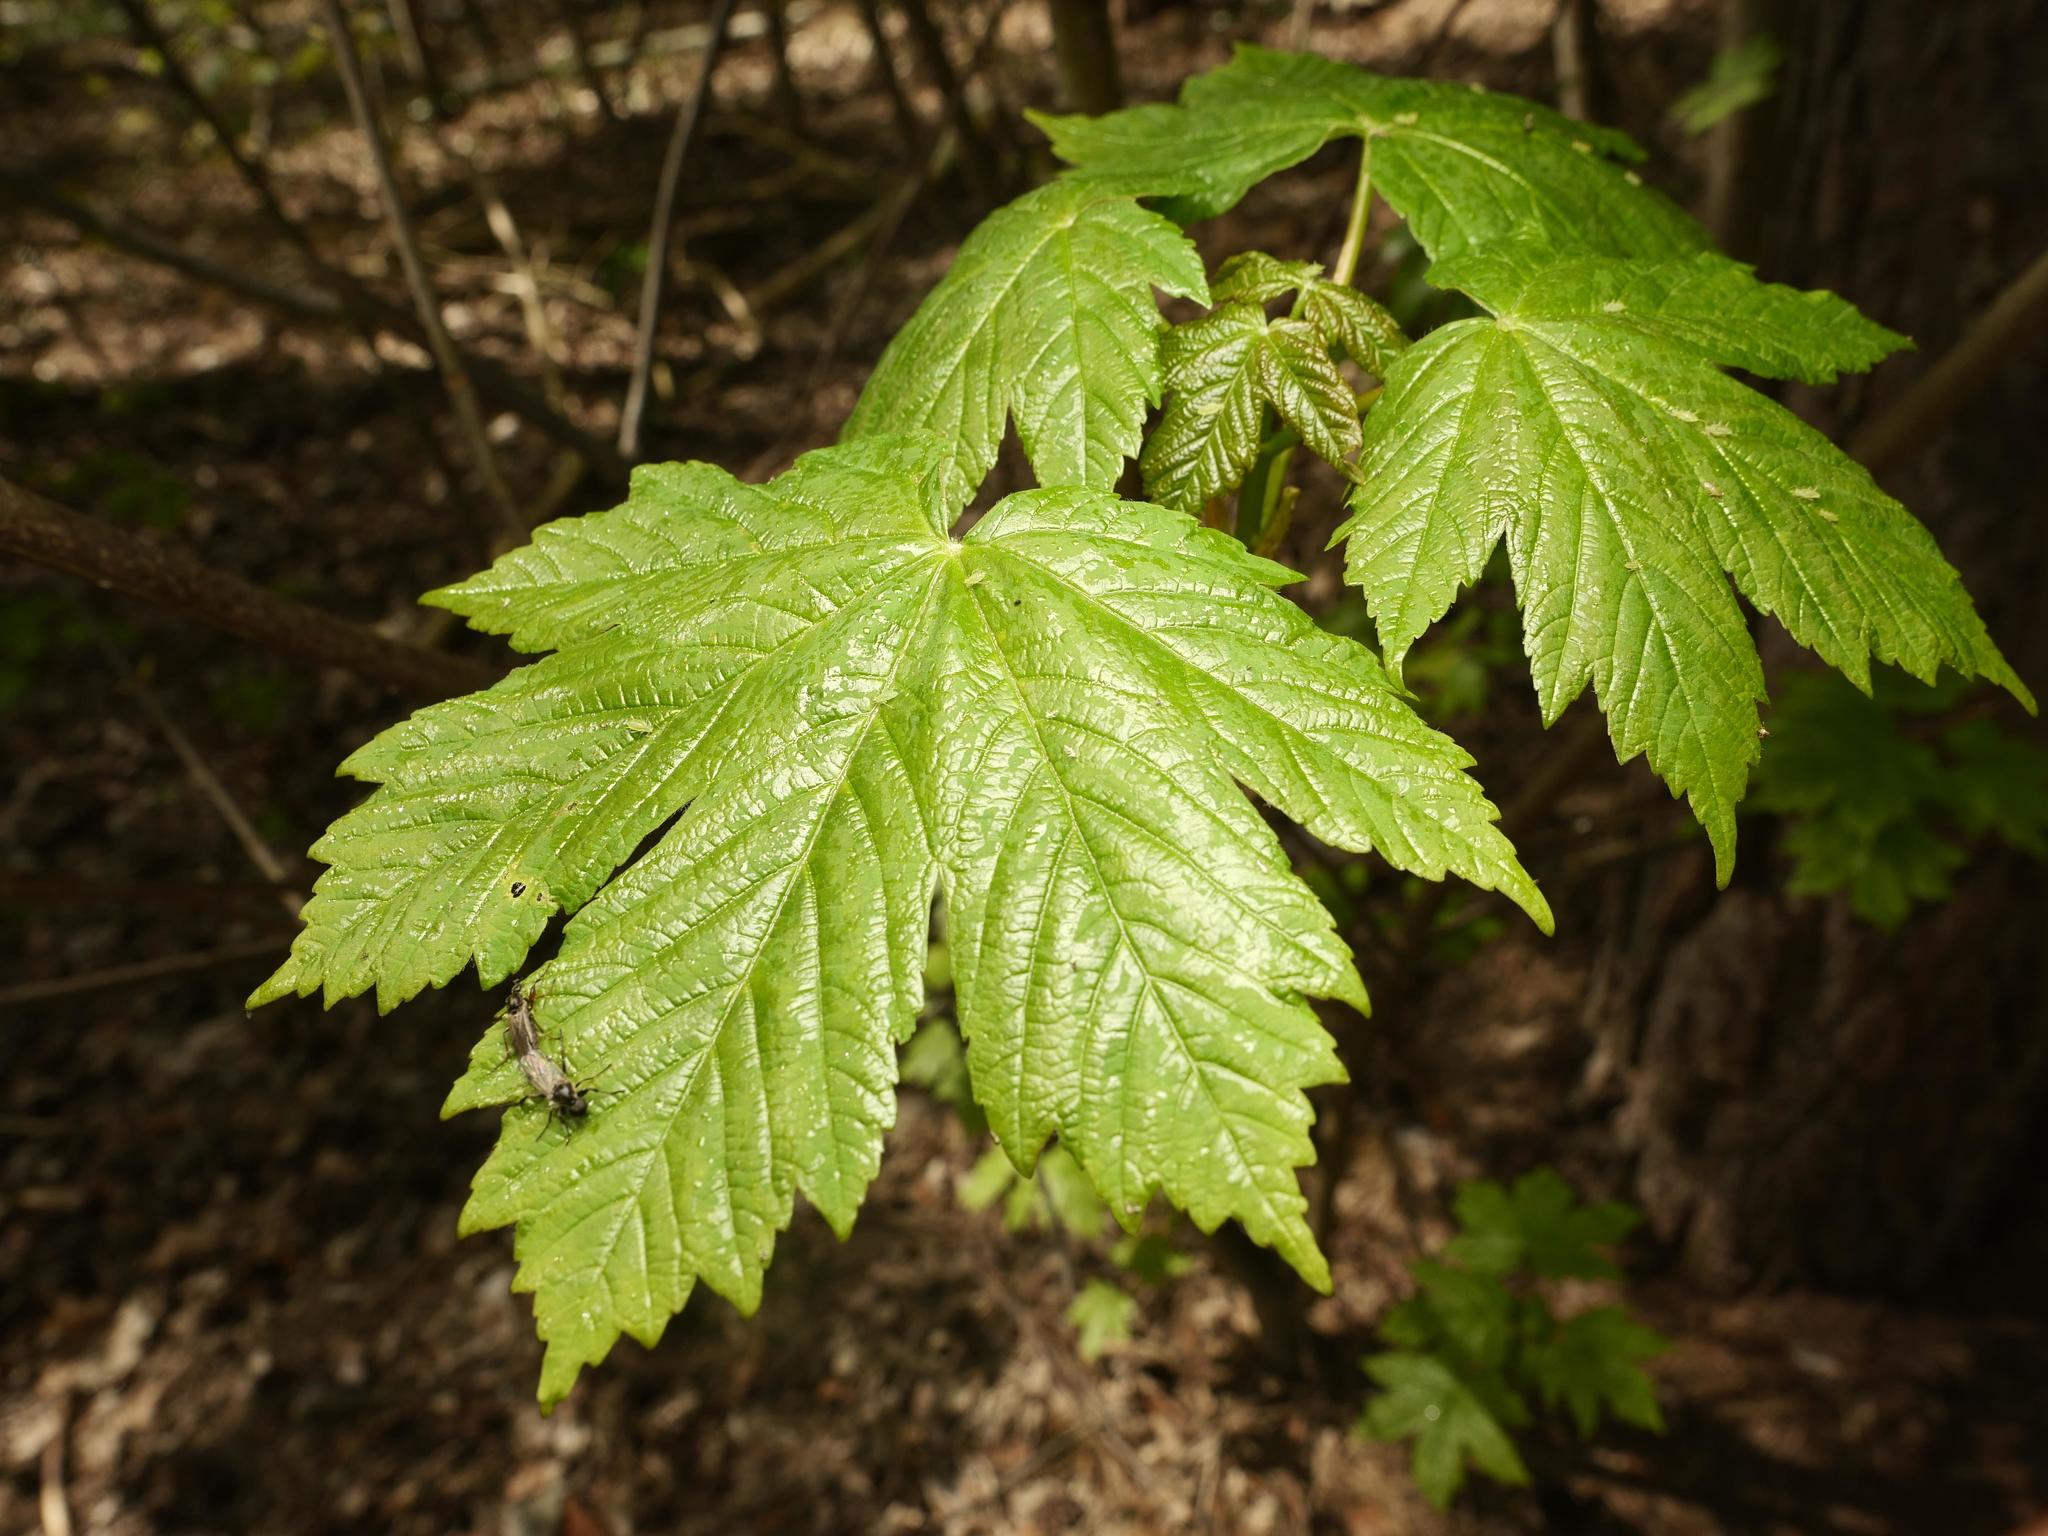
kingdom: Plantae
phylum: Tracheophyta
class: Magnoliopsida
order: Sapindales
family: Sapindaceae
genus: Acer
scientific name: Acer pseudoplatanus
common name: Sycamore
